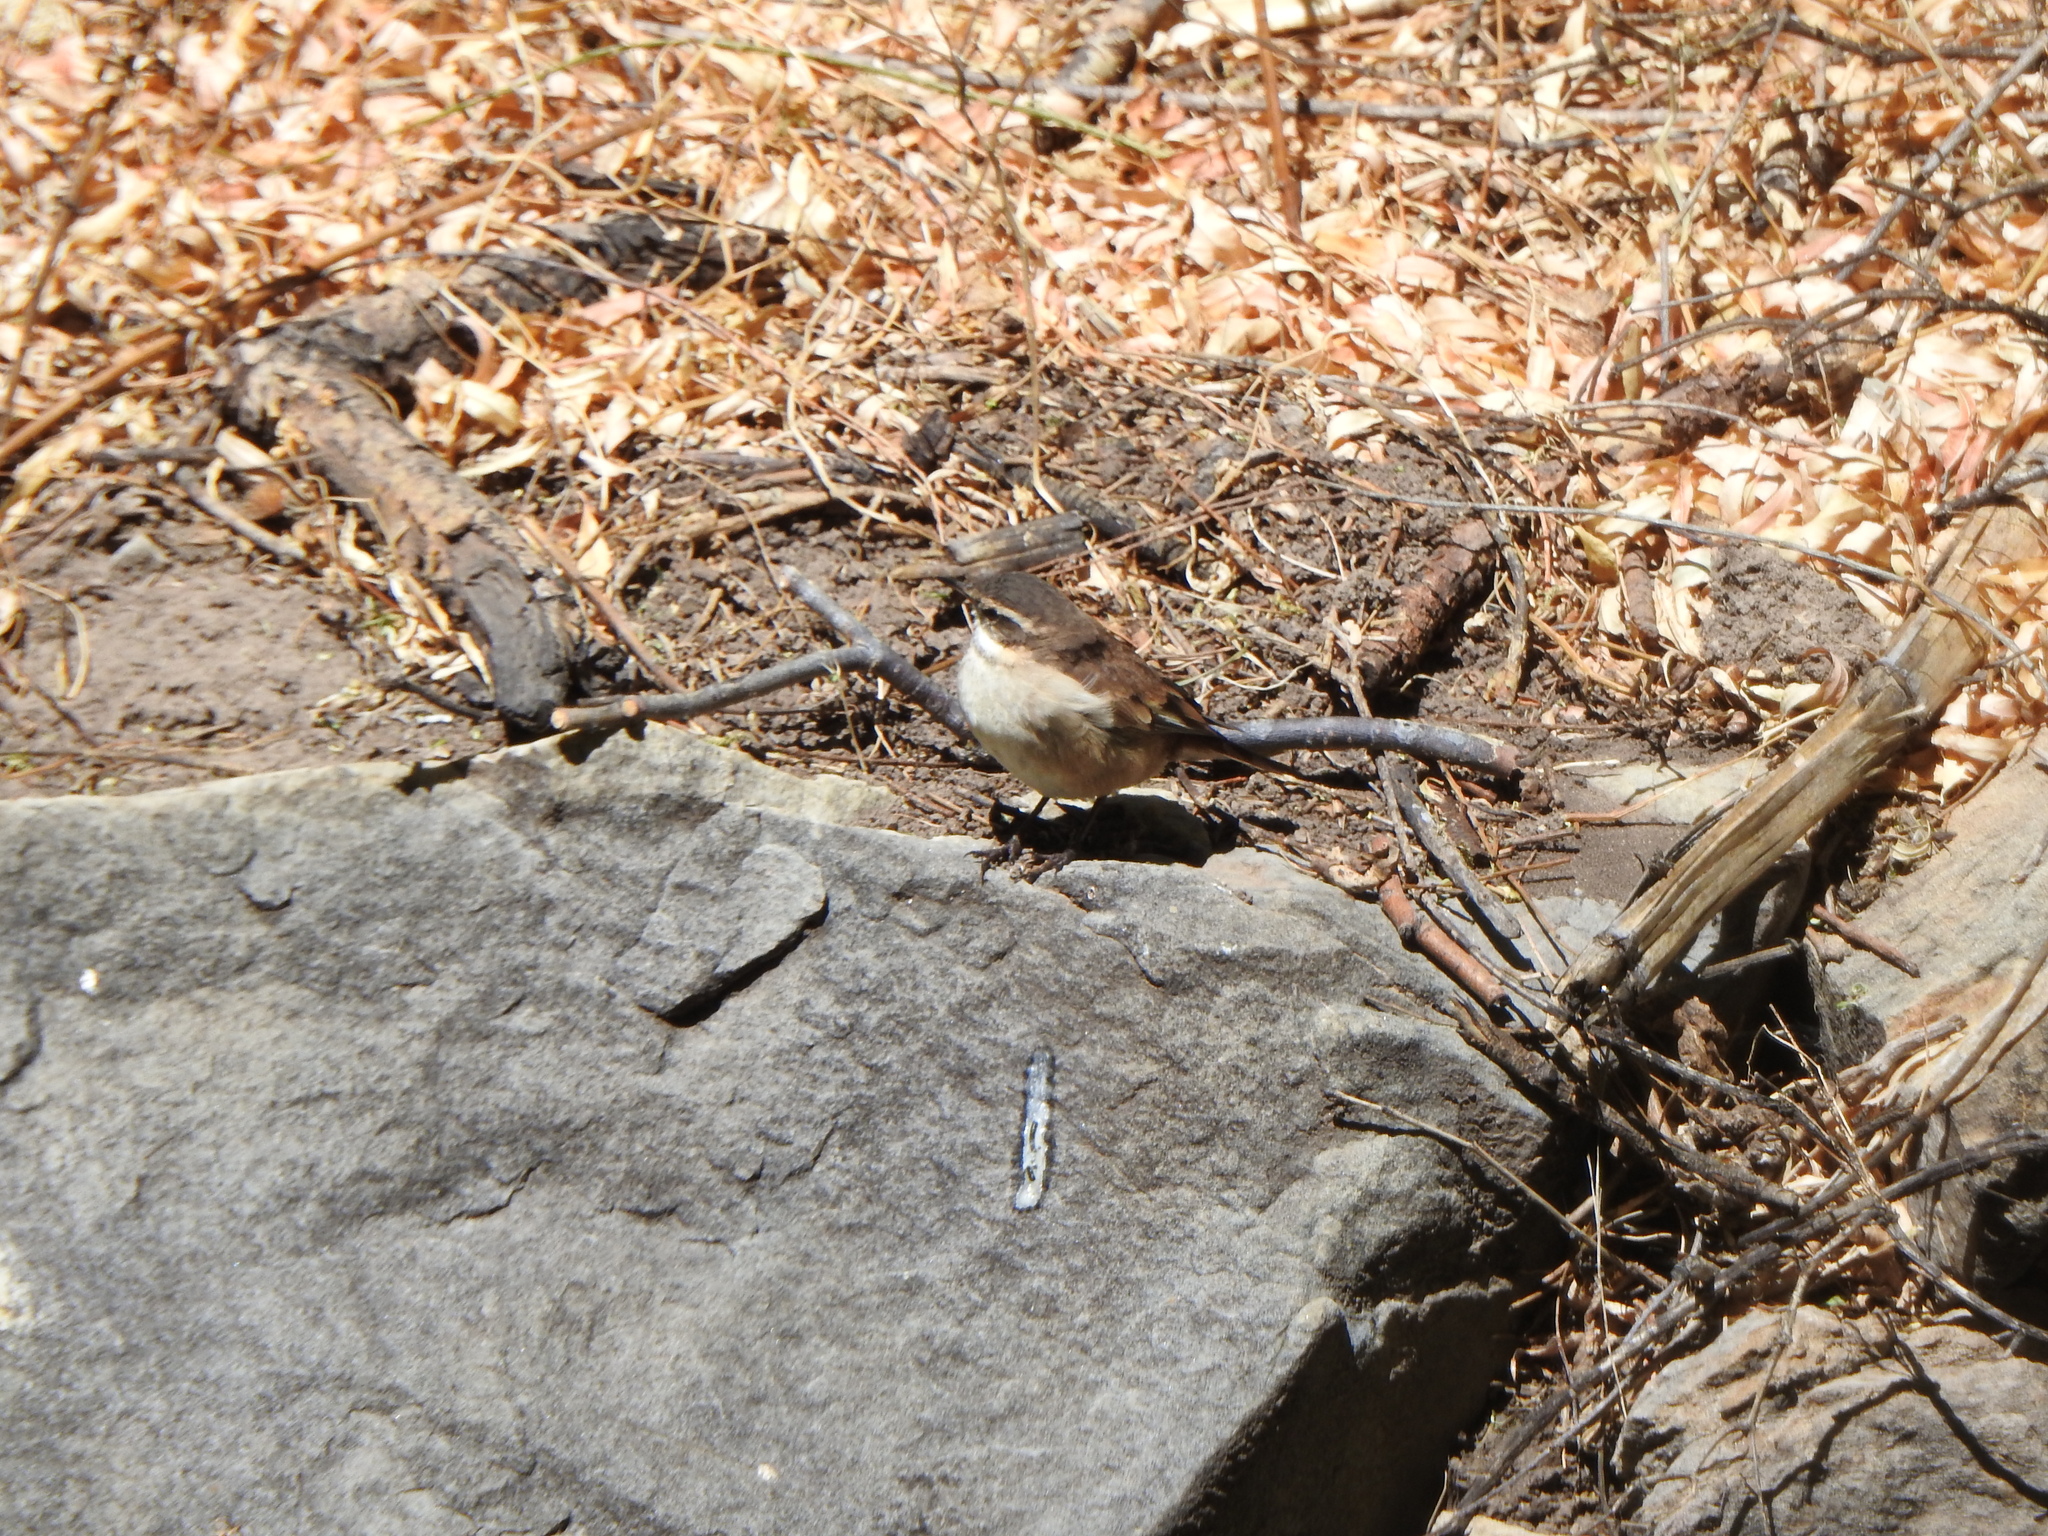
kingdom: Animalia
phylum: Chordata
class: Aves
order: Passeriformes
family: Furnariidae
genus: Cinclodes
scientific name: Cinclodes fuscus
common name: Buff-winged cinclodes
